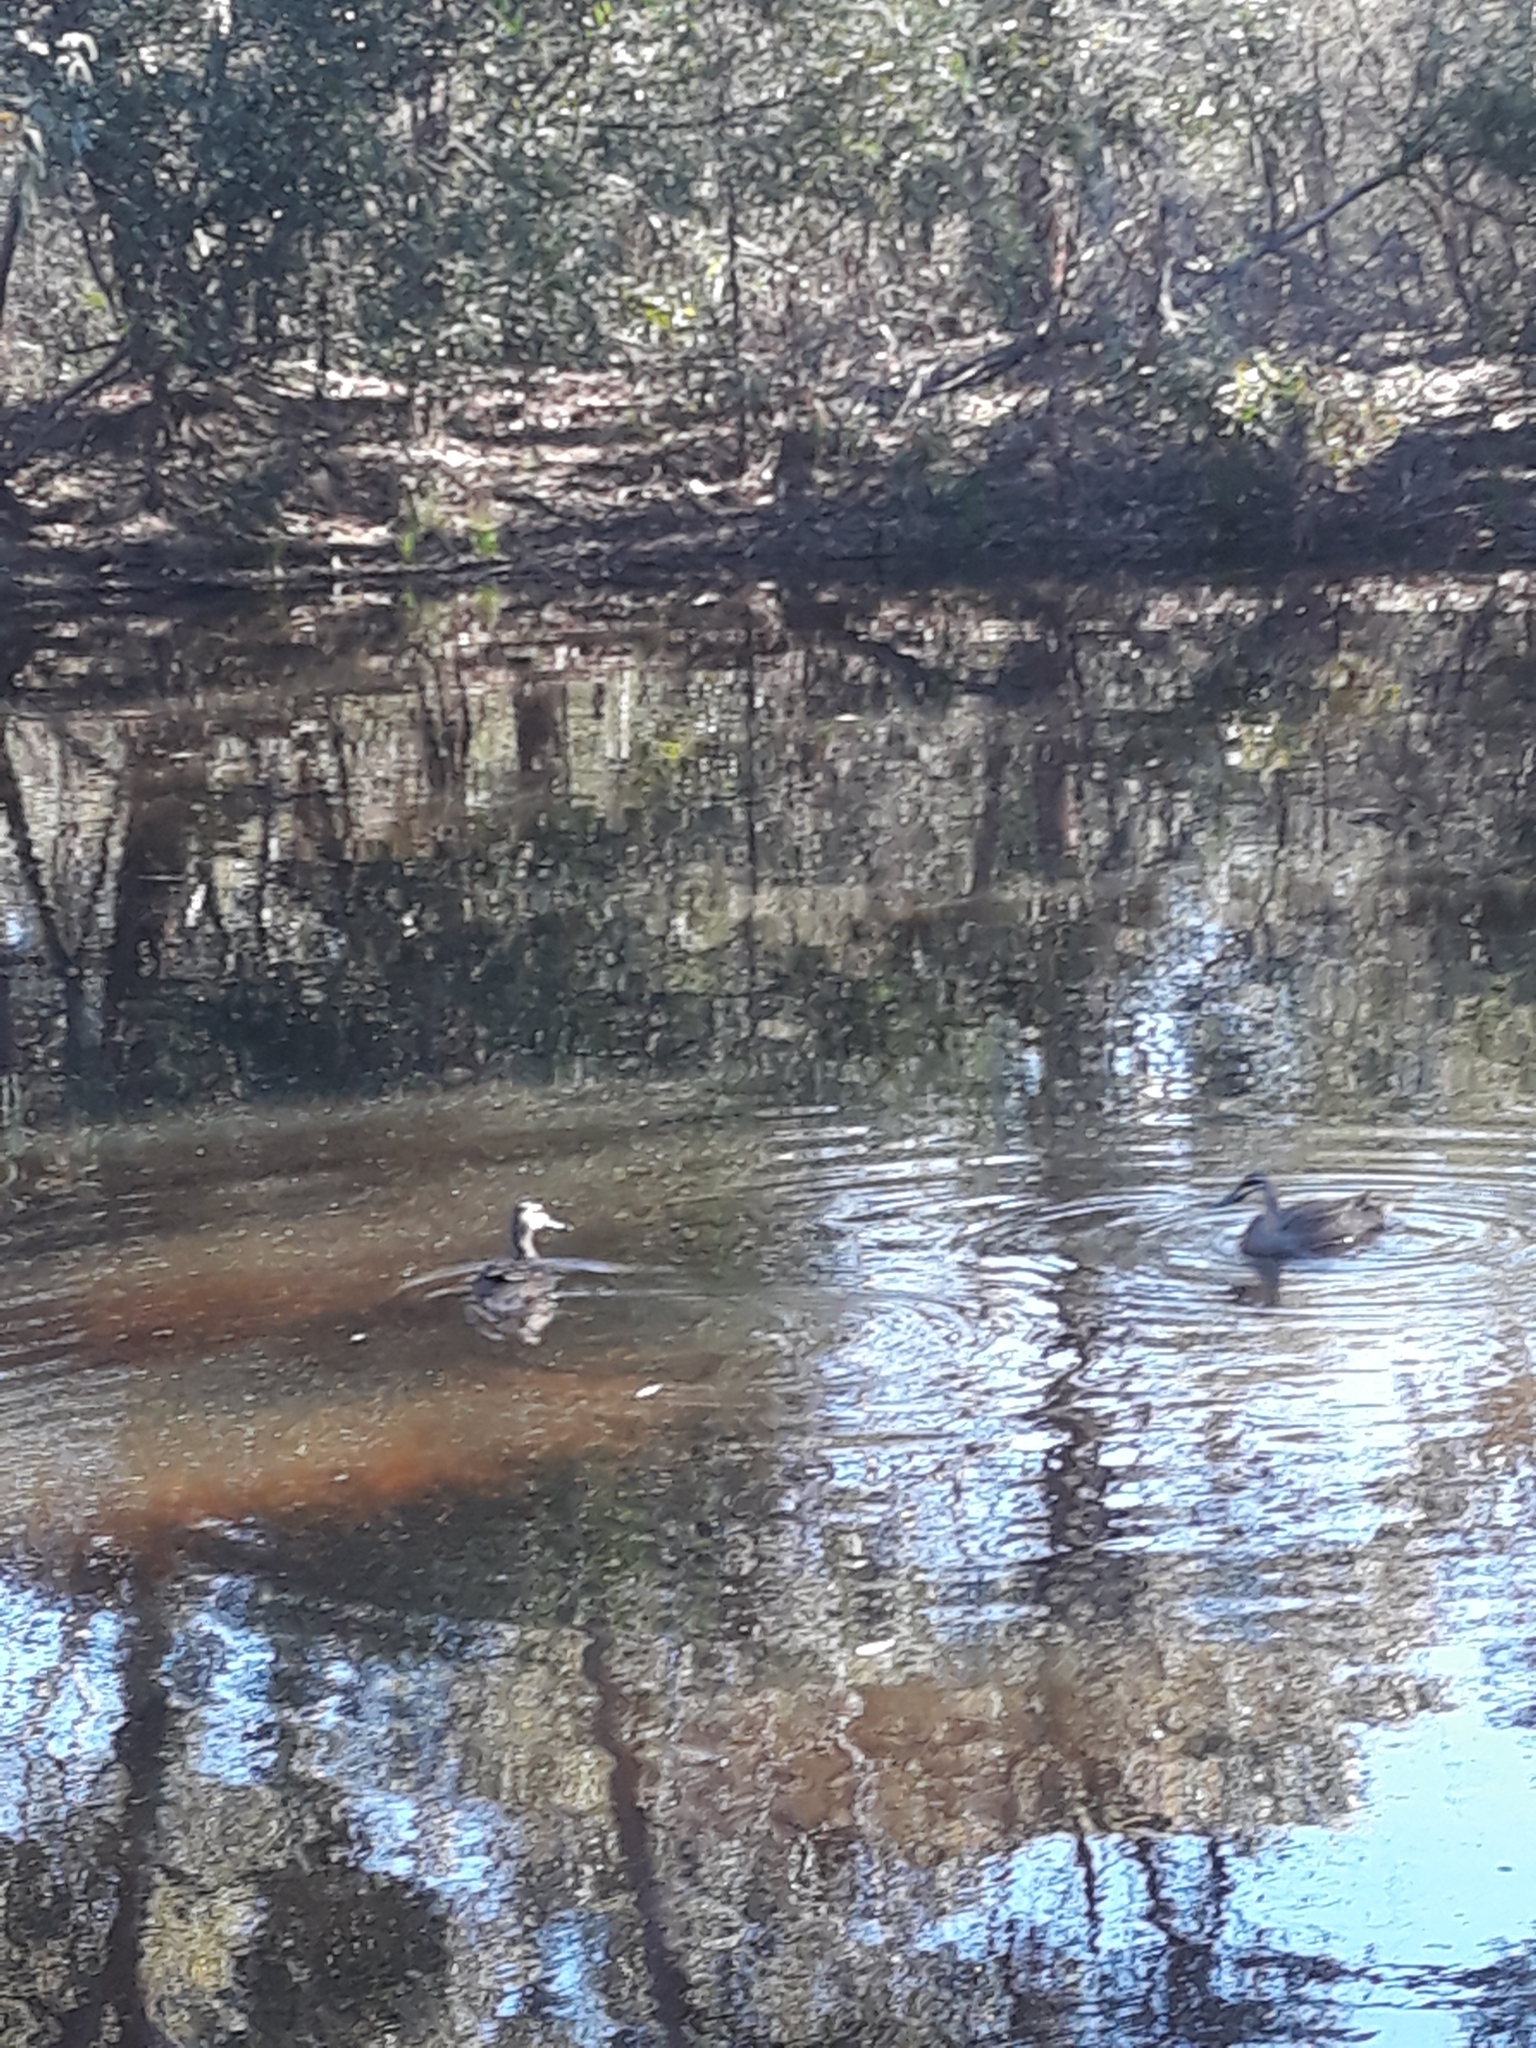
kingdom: Animalia
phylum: Chordata
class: Aves
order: Anseriformes
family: Anatidae
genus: Anas
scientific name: Anas superciliosa
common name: Pacific black duck
